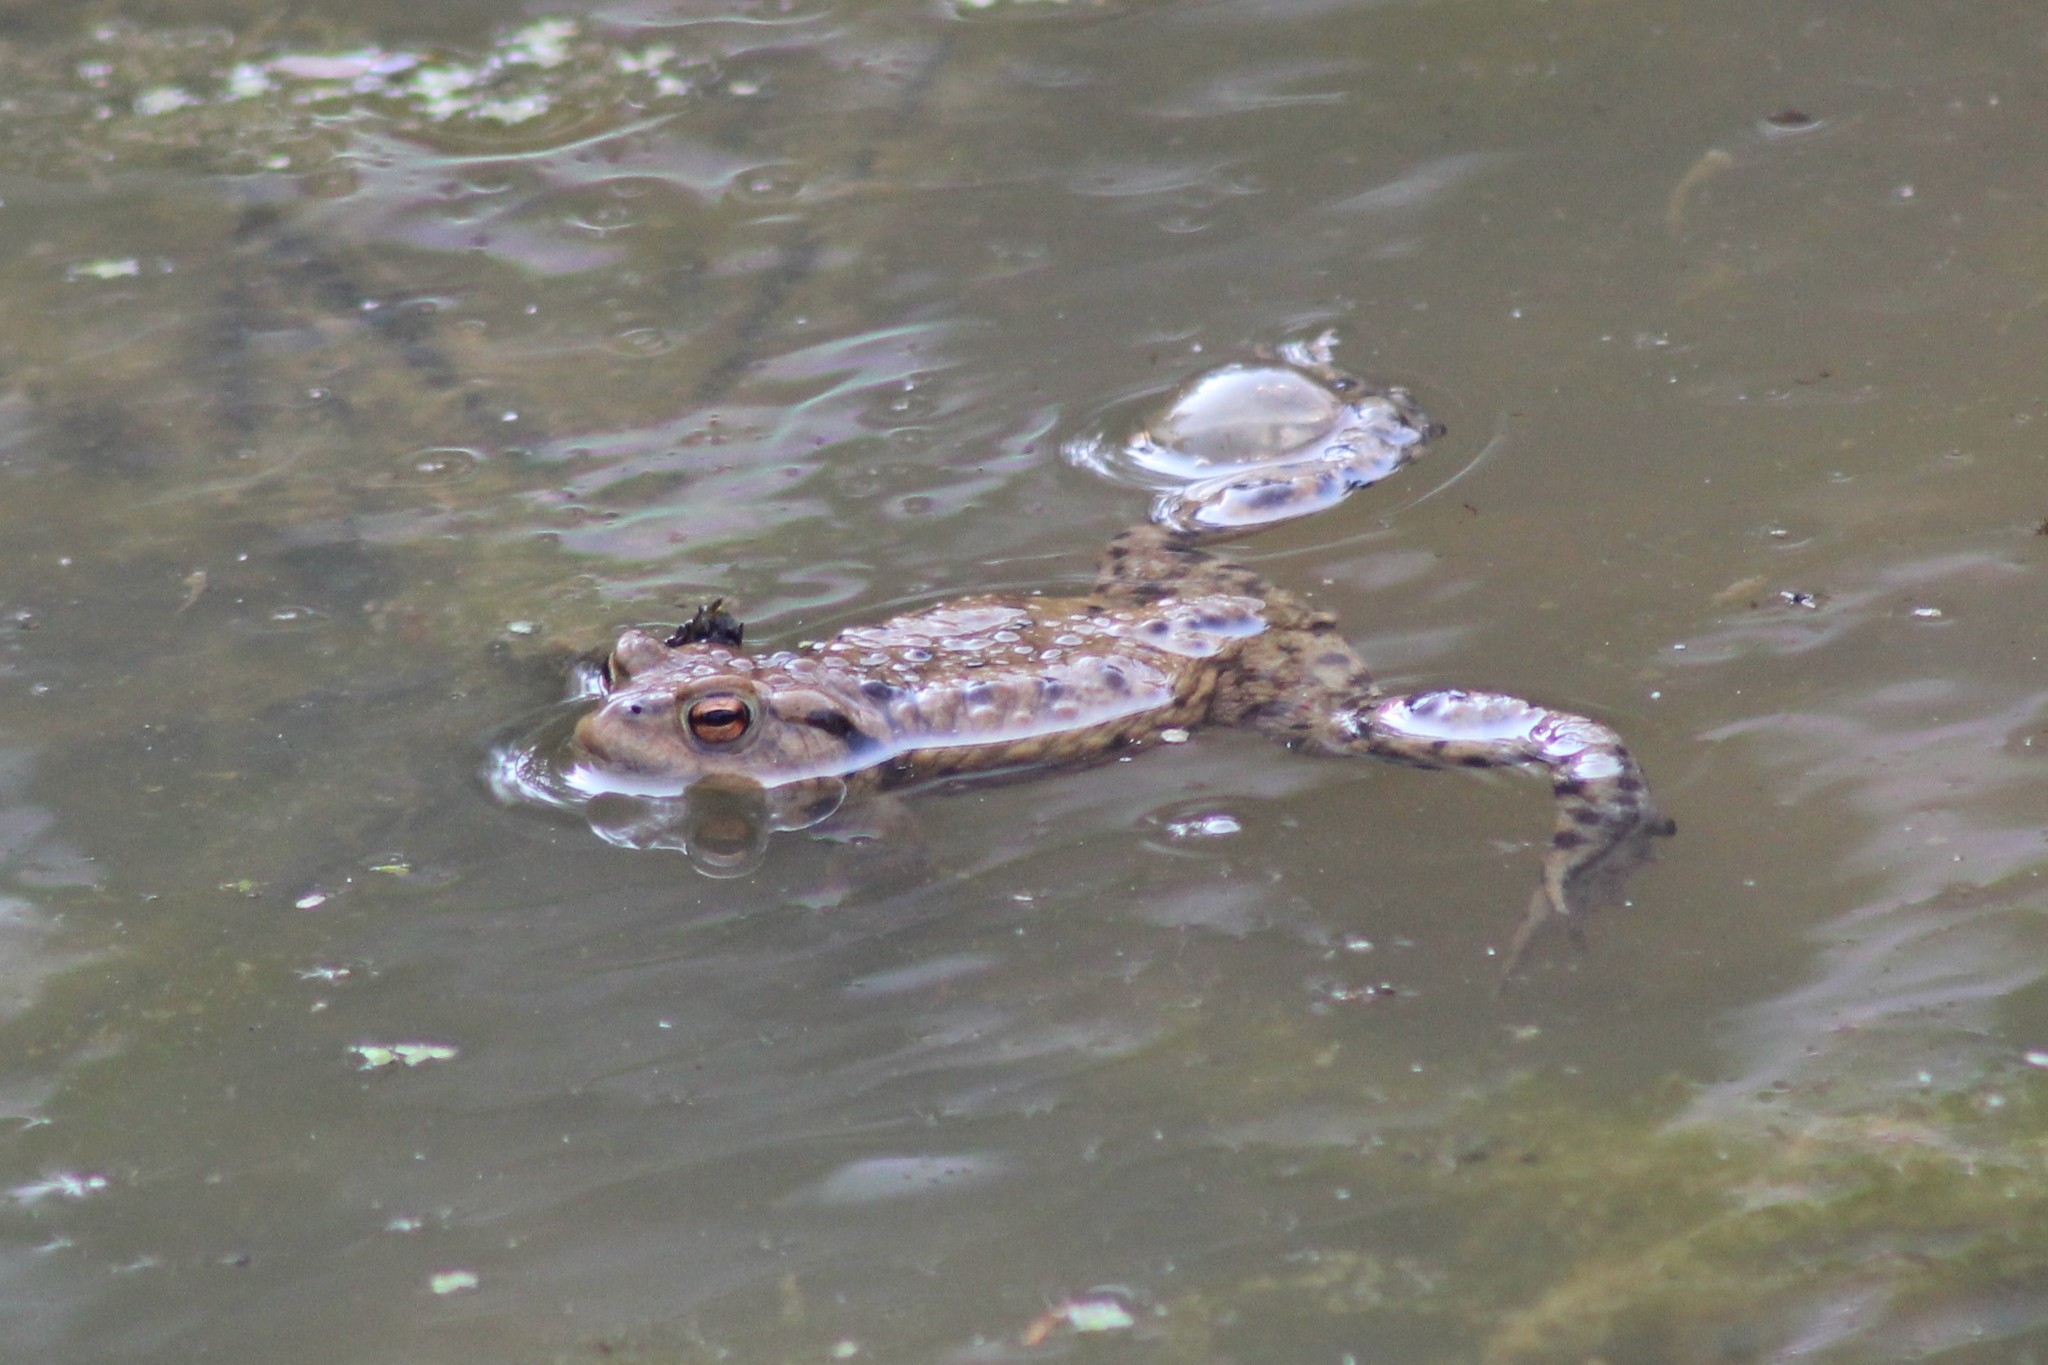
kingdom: Animalia
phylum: Chordata
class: Amphibia
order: Anura
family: Bufonidae
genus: Bufo
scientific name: Bufo bufo
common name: Common toad
